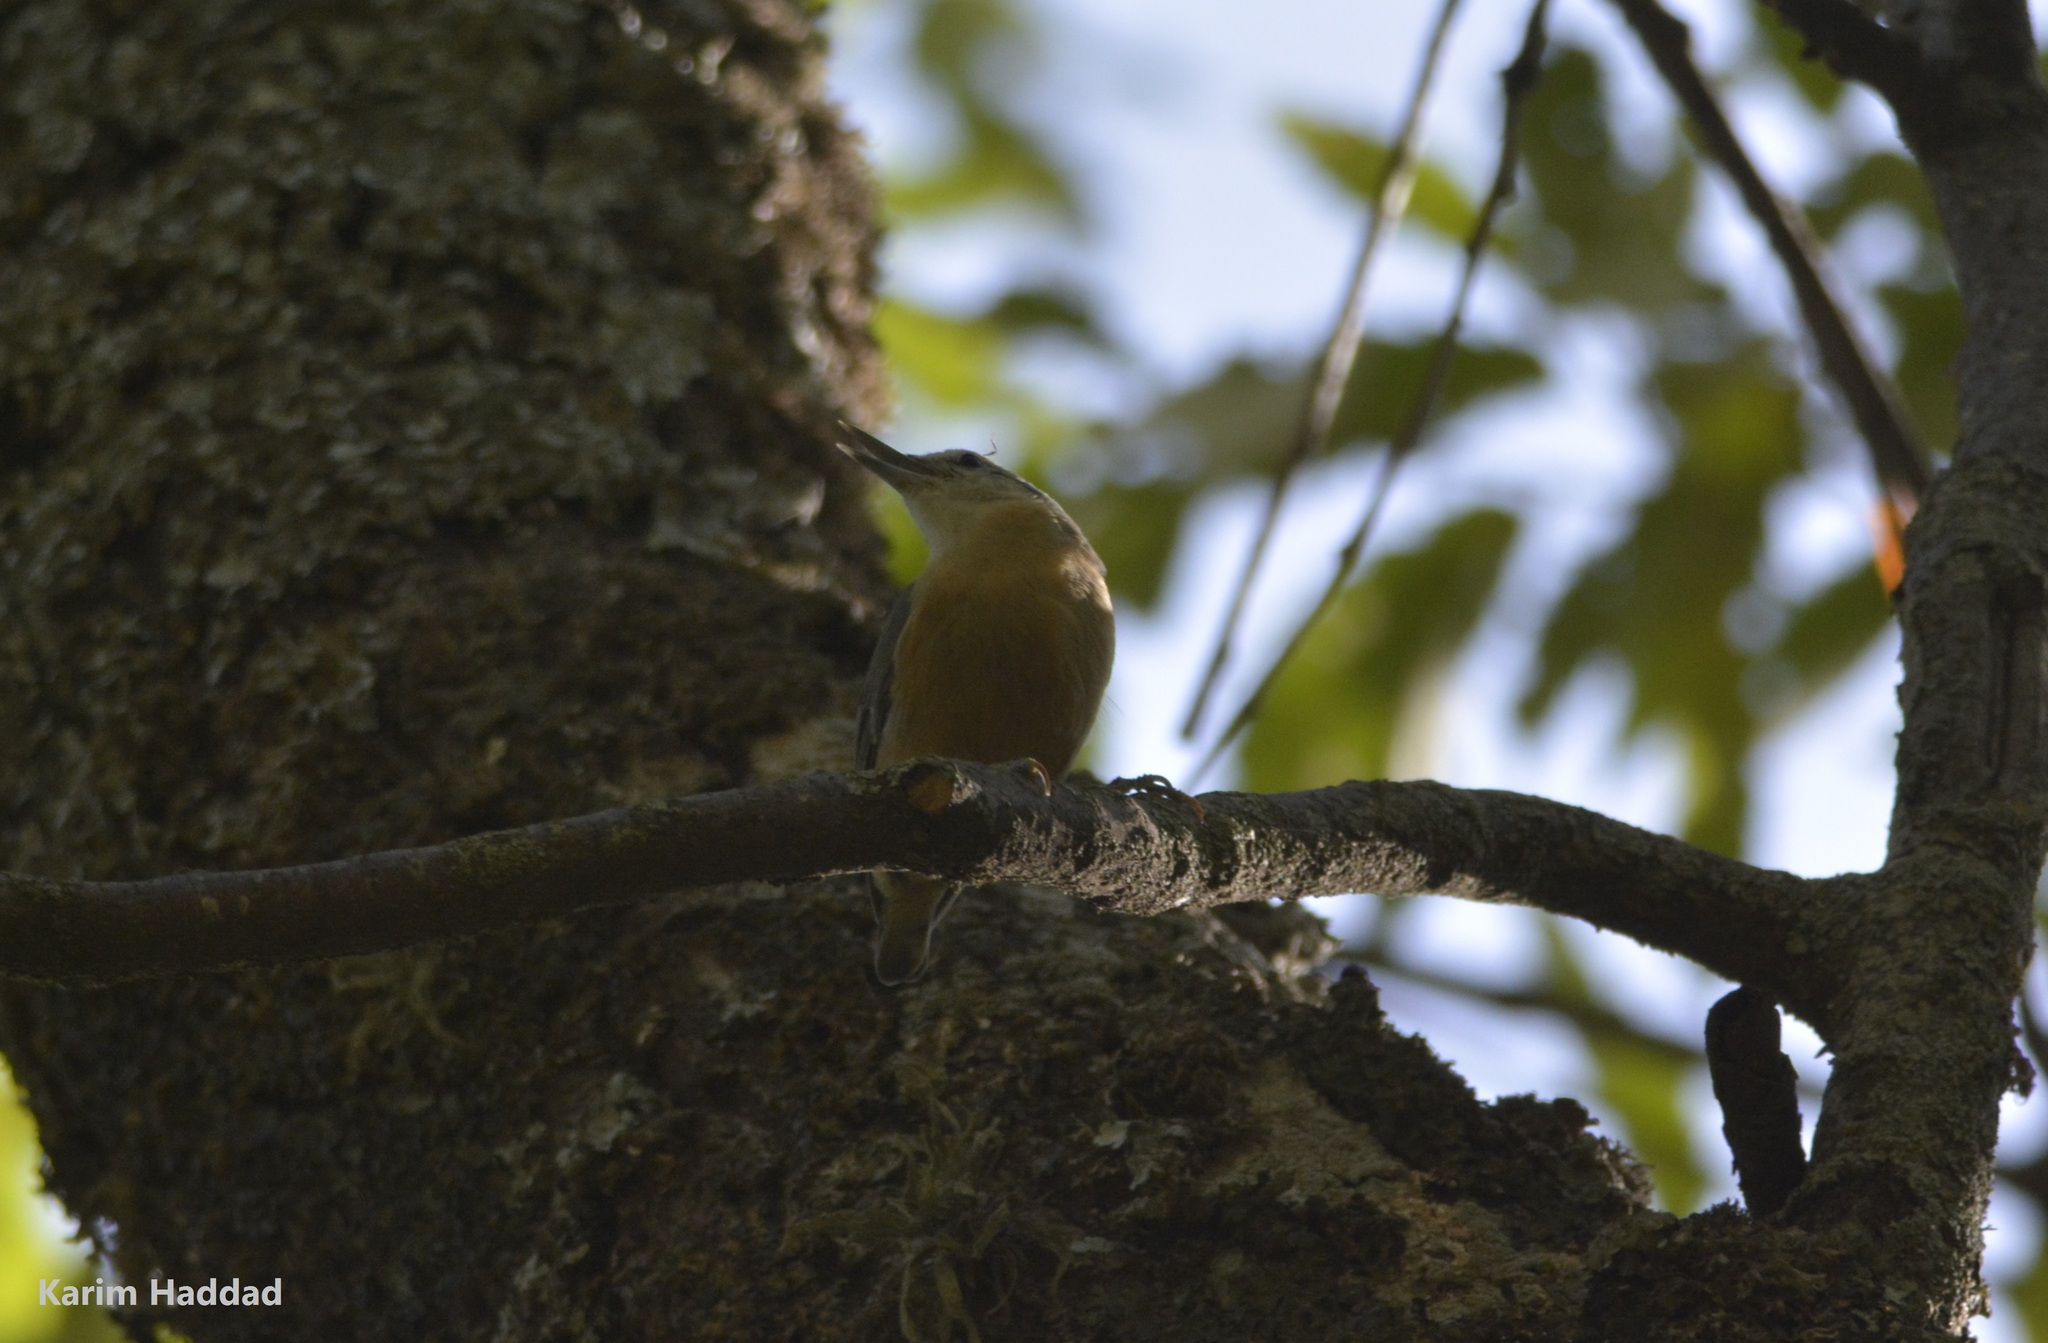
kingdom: Animalia
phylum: Chordata
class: Aves
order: Passeriformes
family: Sittidae
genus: Sitta
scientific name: Sitta ledanti
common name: Algerian nuthatch
